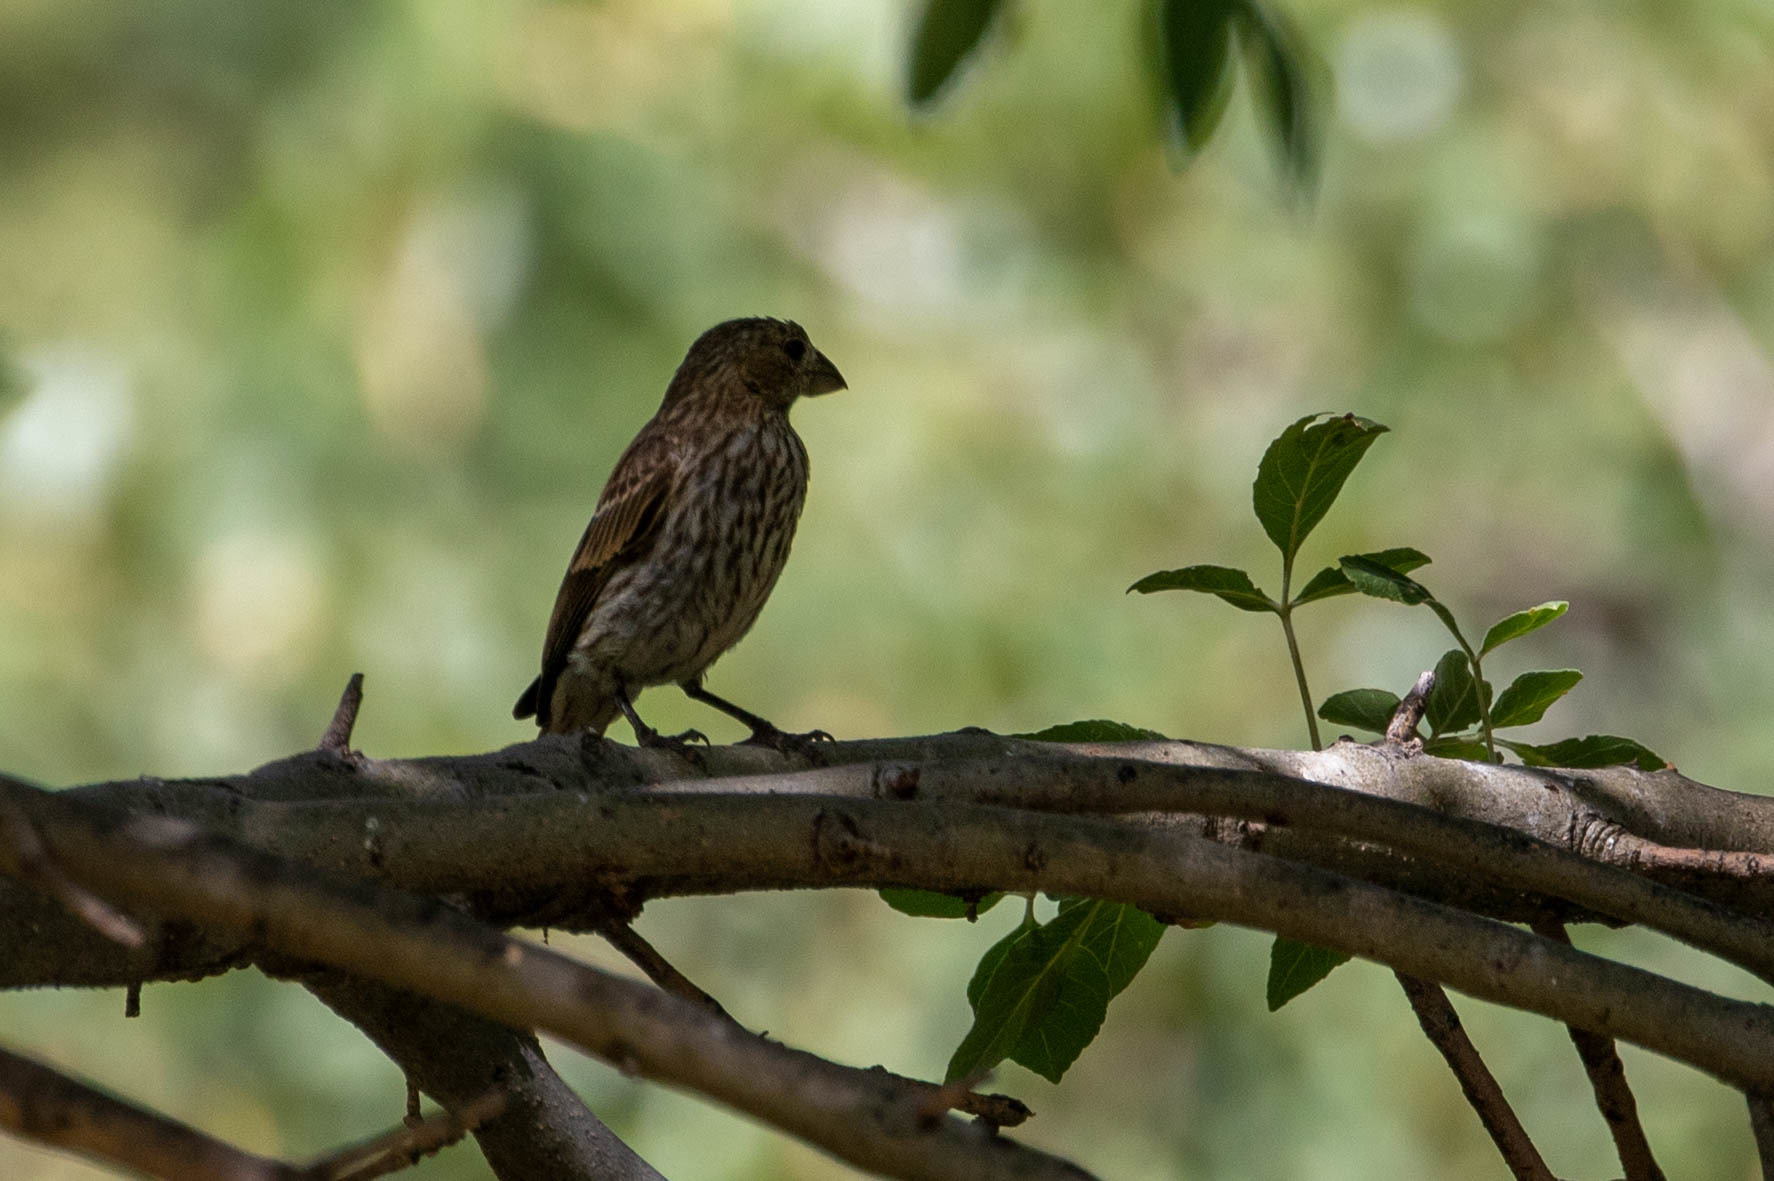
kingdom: Animalia
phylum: Chordata
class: Aves
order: Passeriformes
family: Fringillidae
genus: Haemorhous
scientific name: Haemorhous mexicanus
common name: House finch
